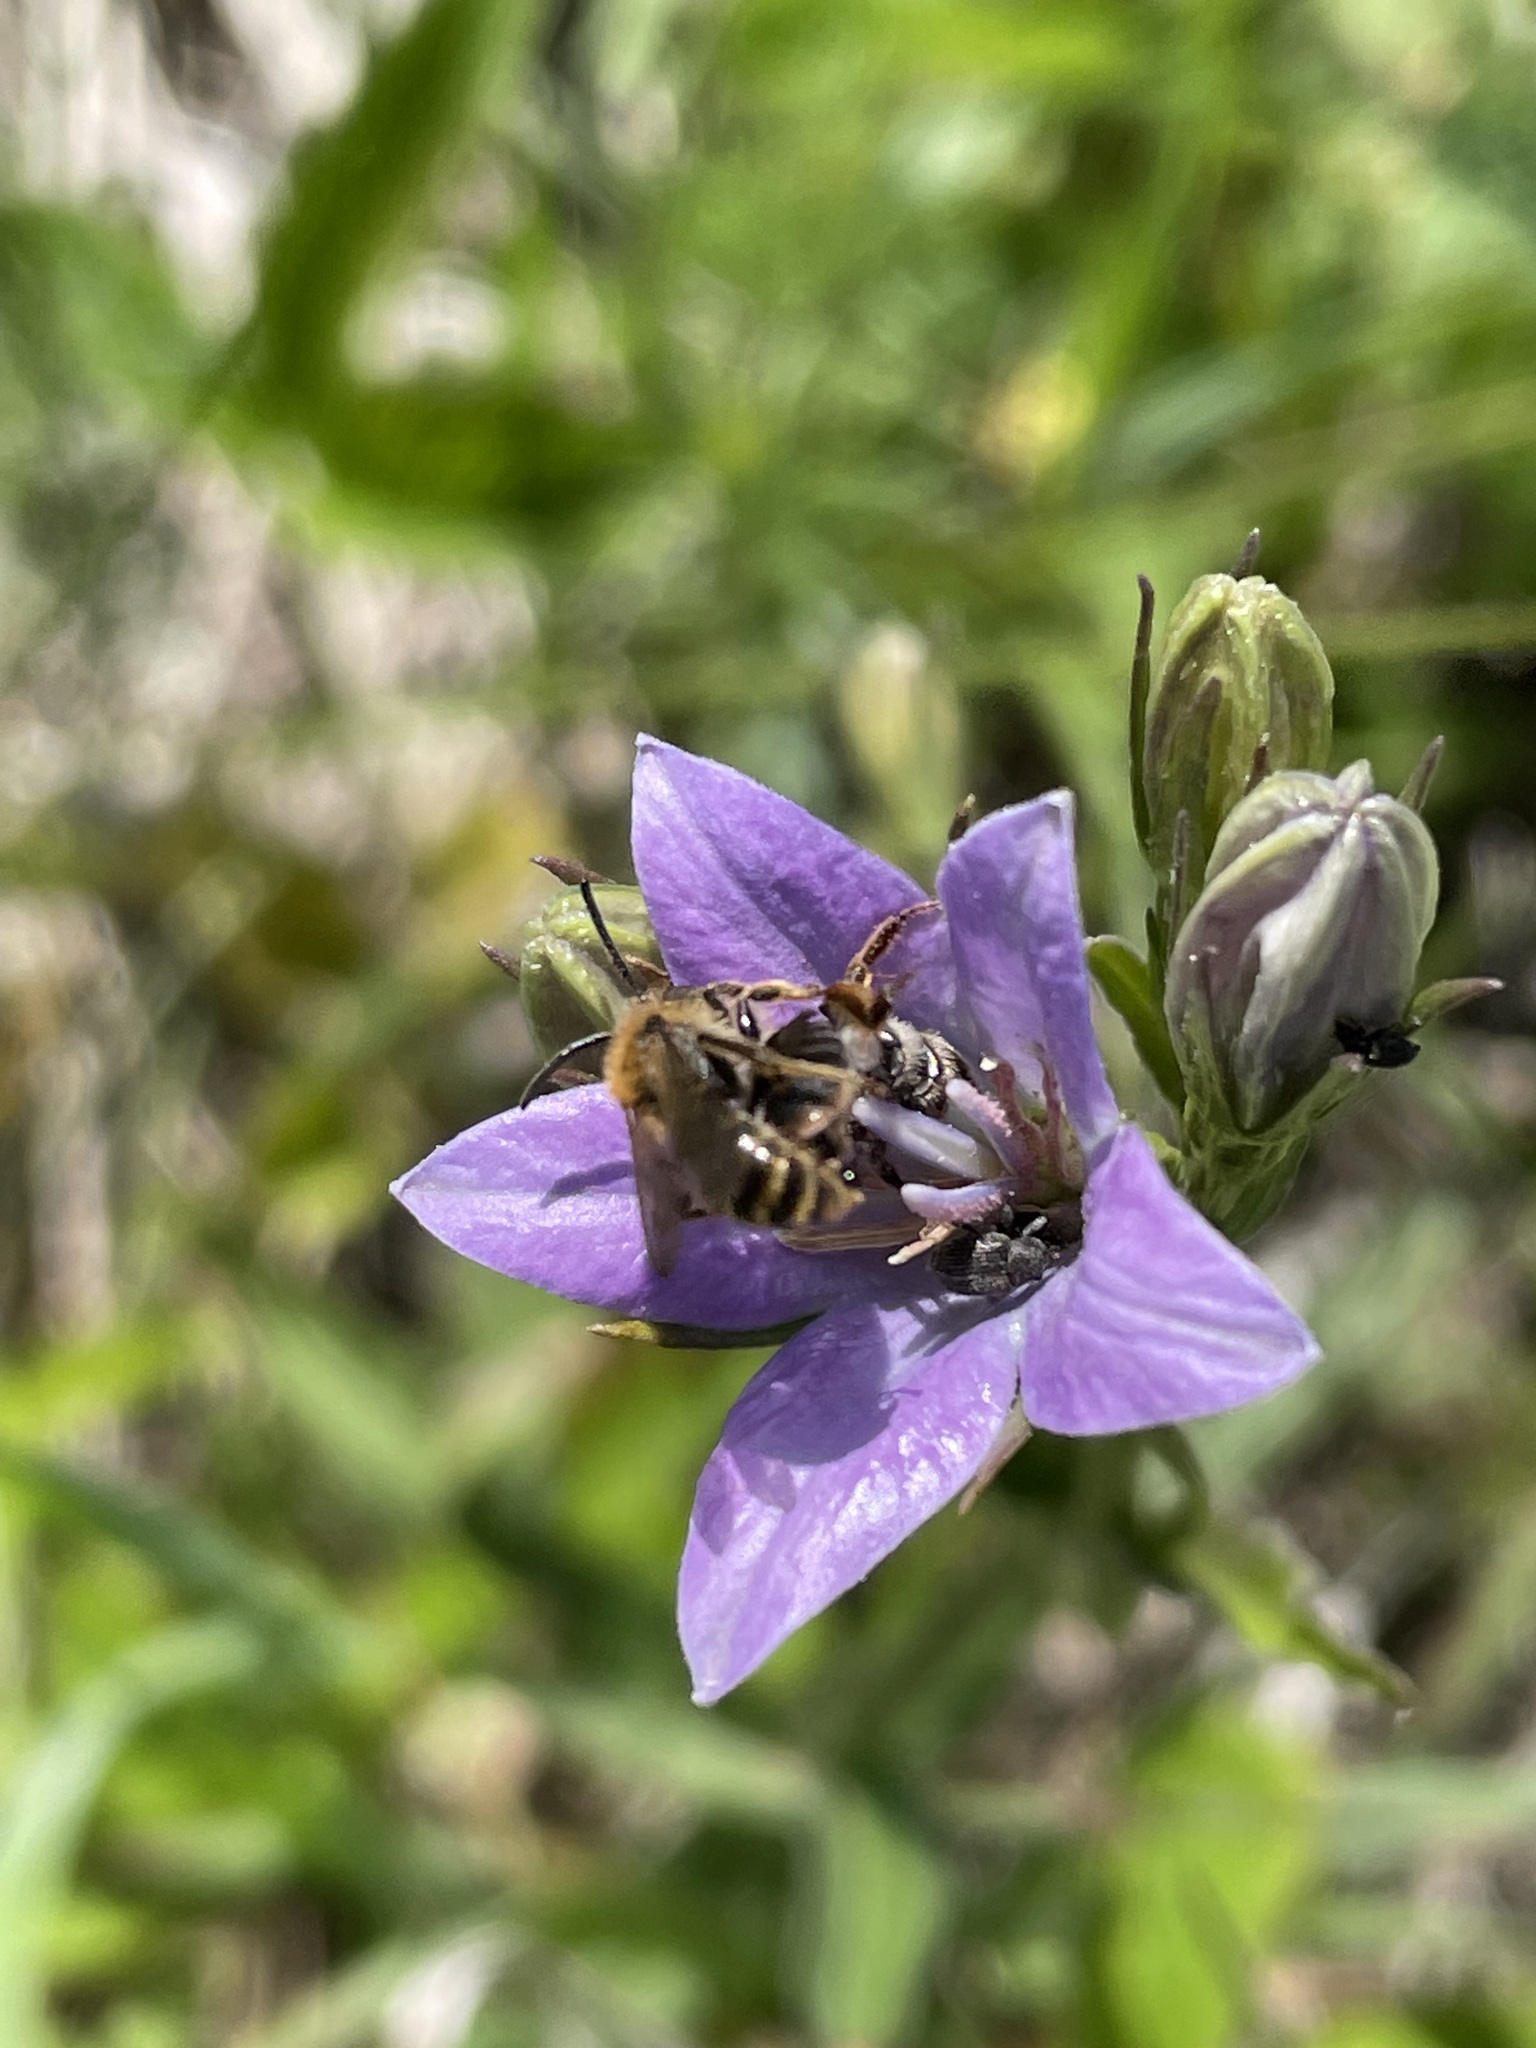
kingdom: Plantae
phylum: Tracheophyta
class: Magnoliopsida
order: Asterales
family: Campanulaceae
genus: Campanula
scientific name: Campanula stevenii
